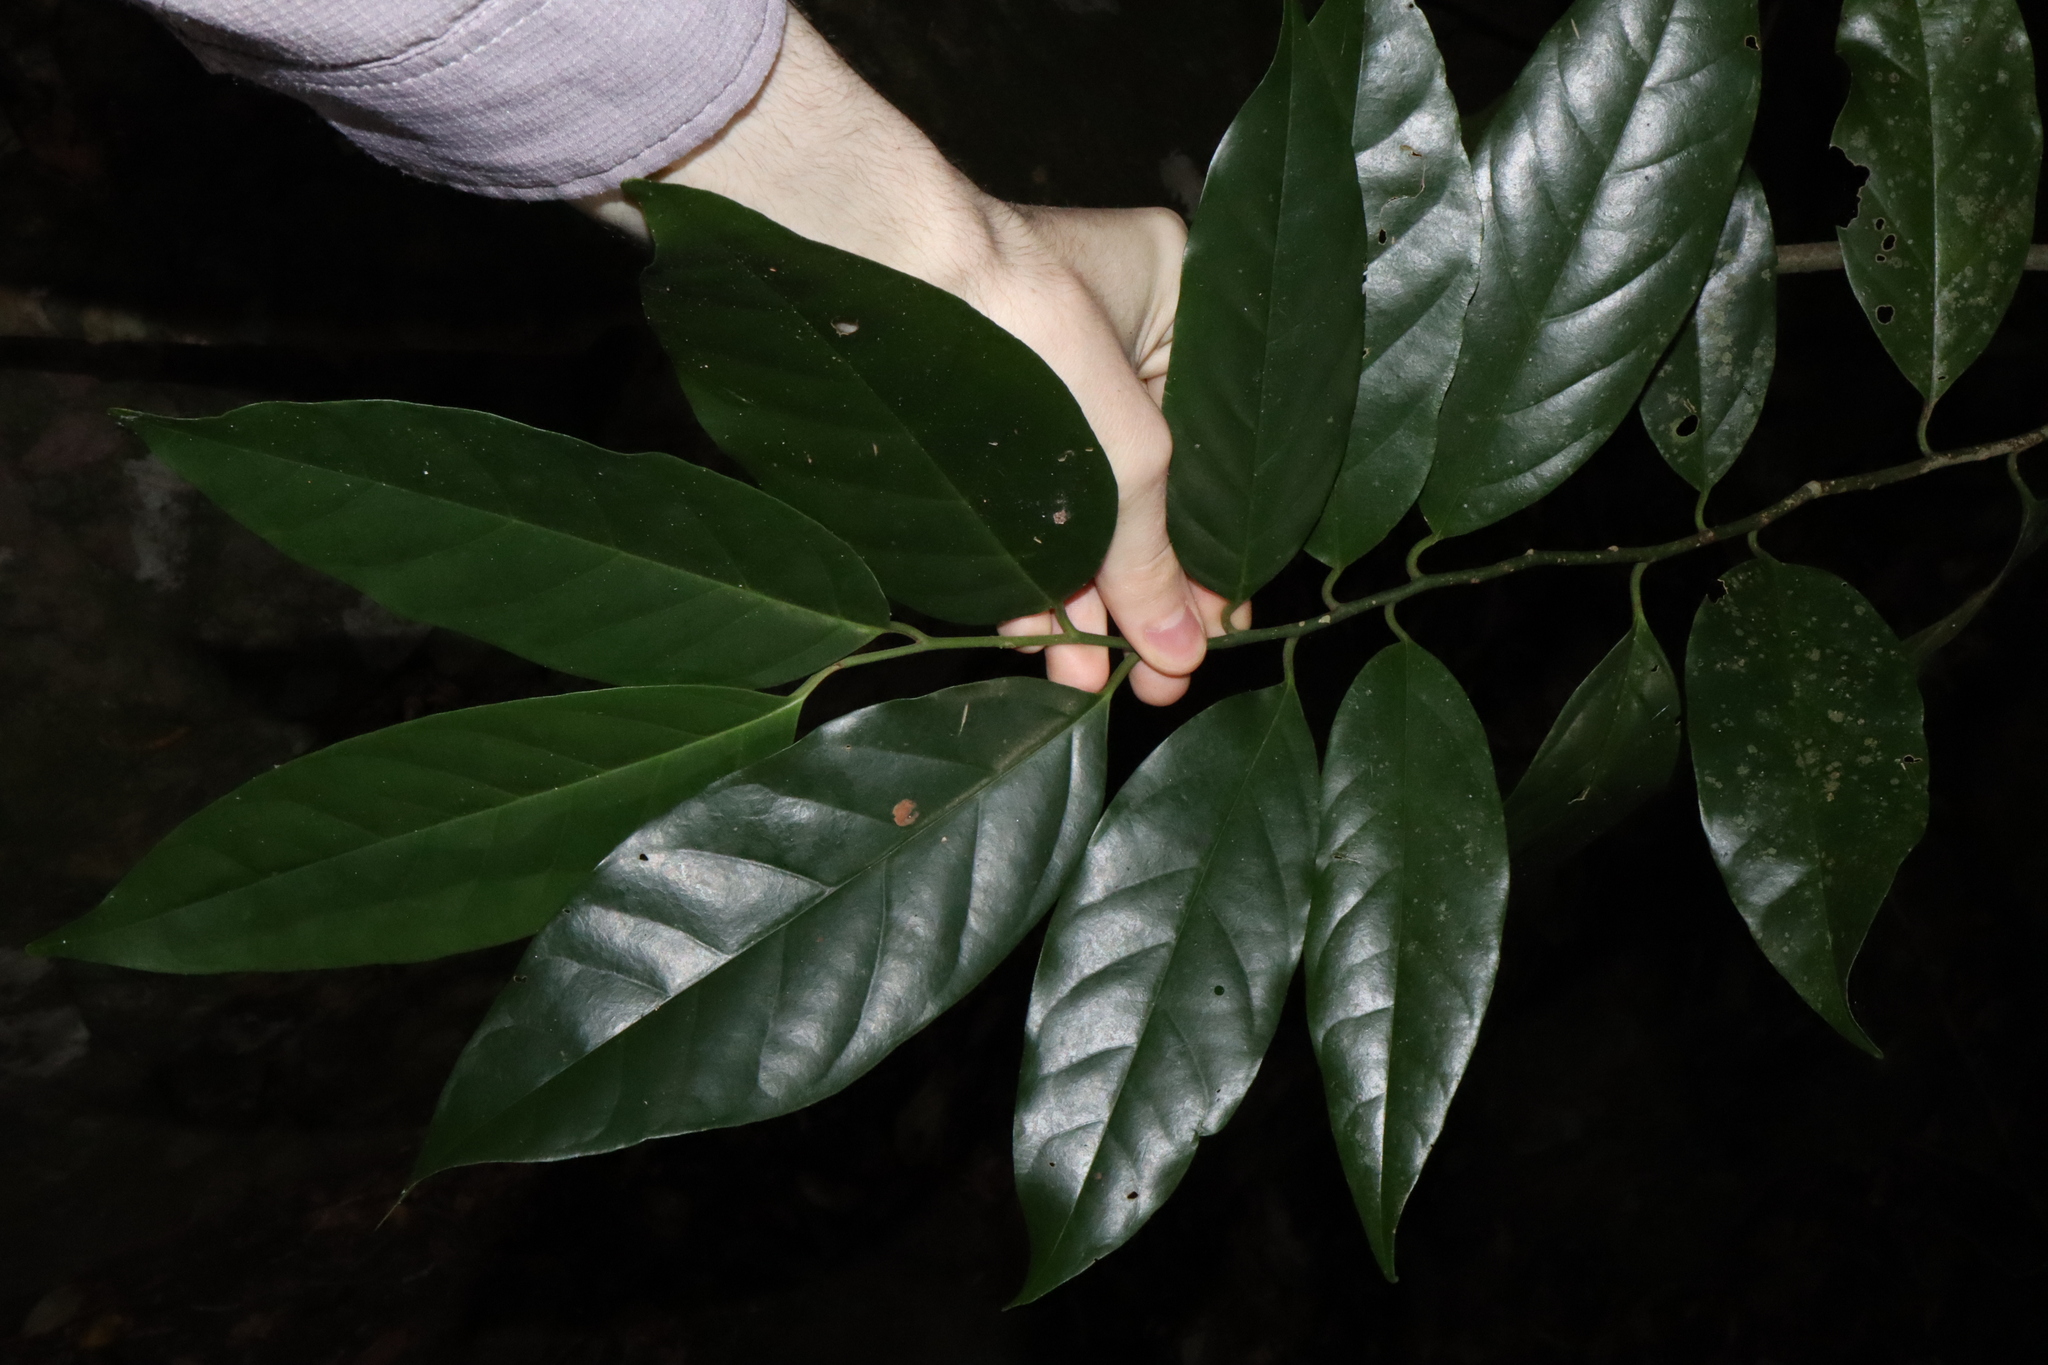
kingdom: Plantae
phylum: Tracheophyta
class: Magnoliopsida
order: Cardiopteridales
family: Stemonuraceae
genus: Gomphandra
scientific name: Gomphandra australiana
